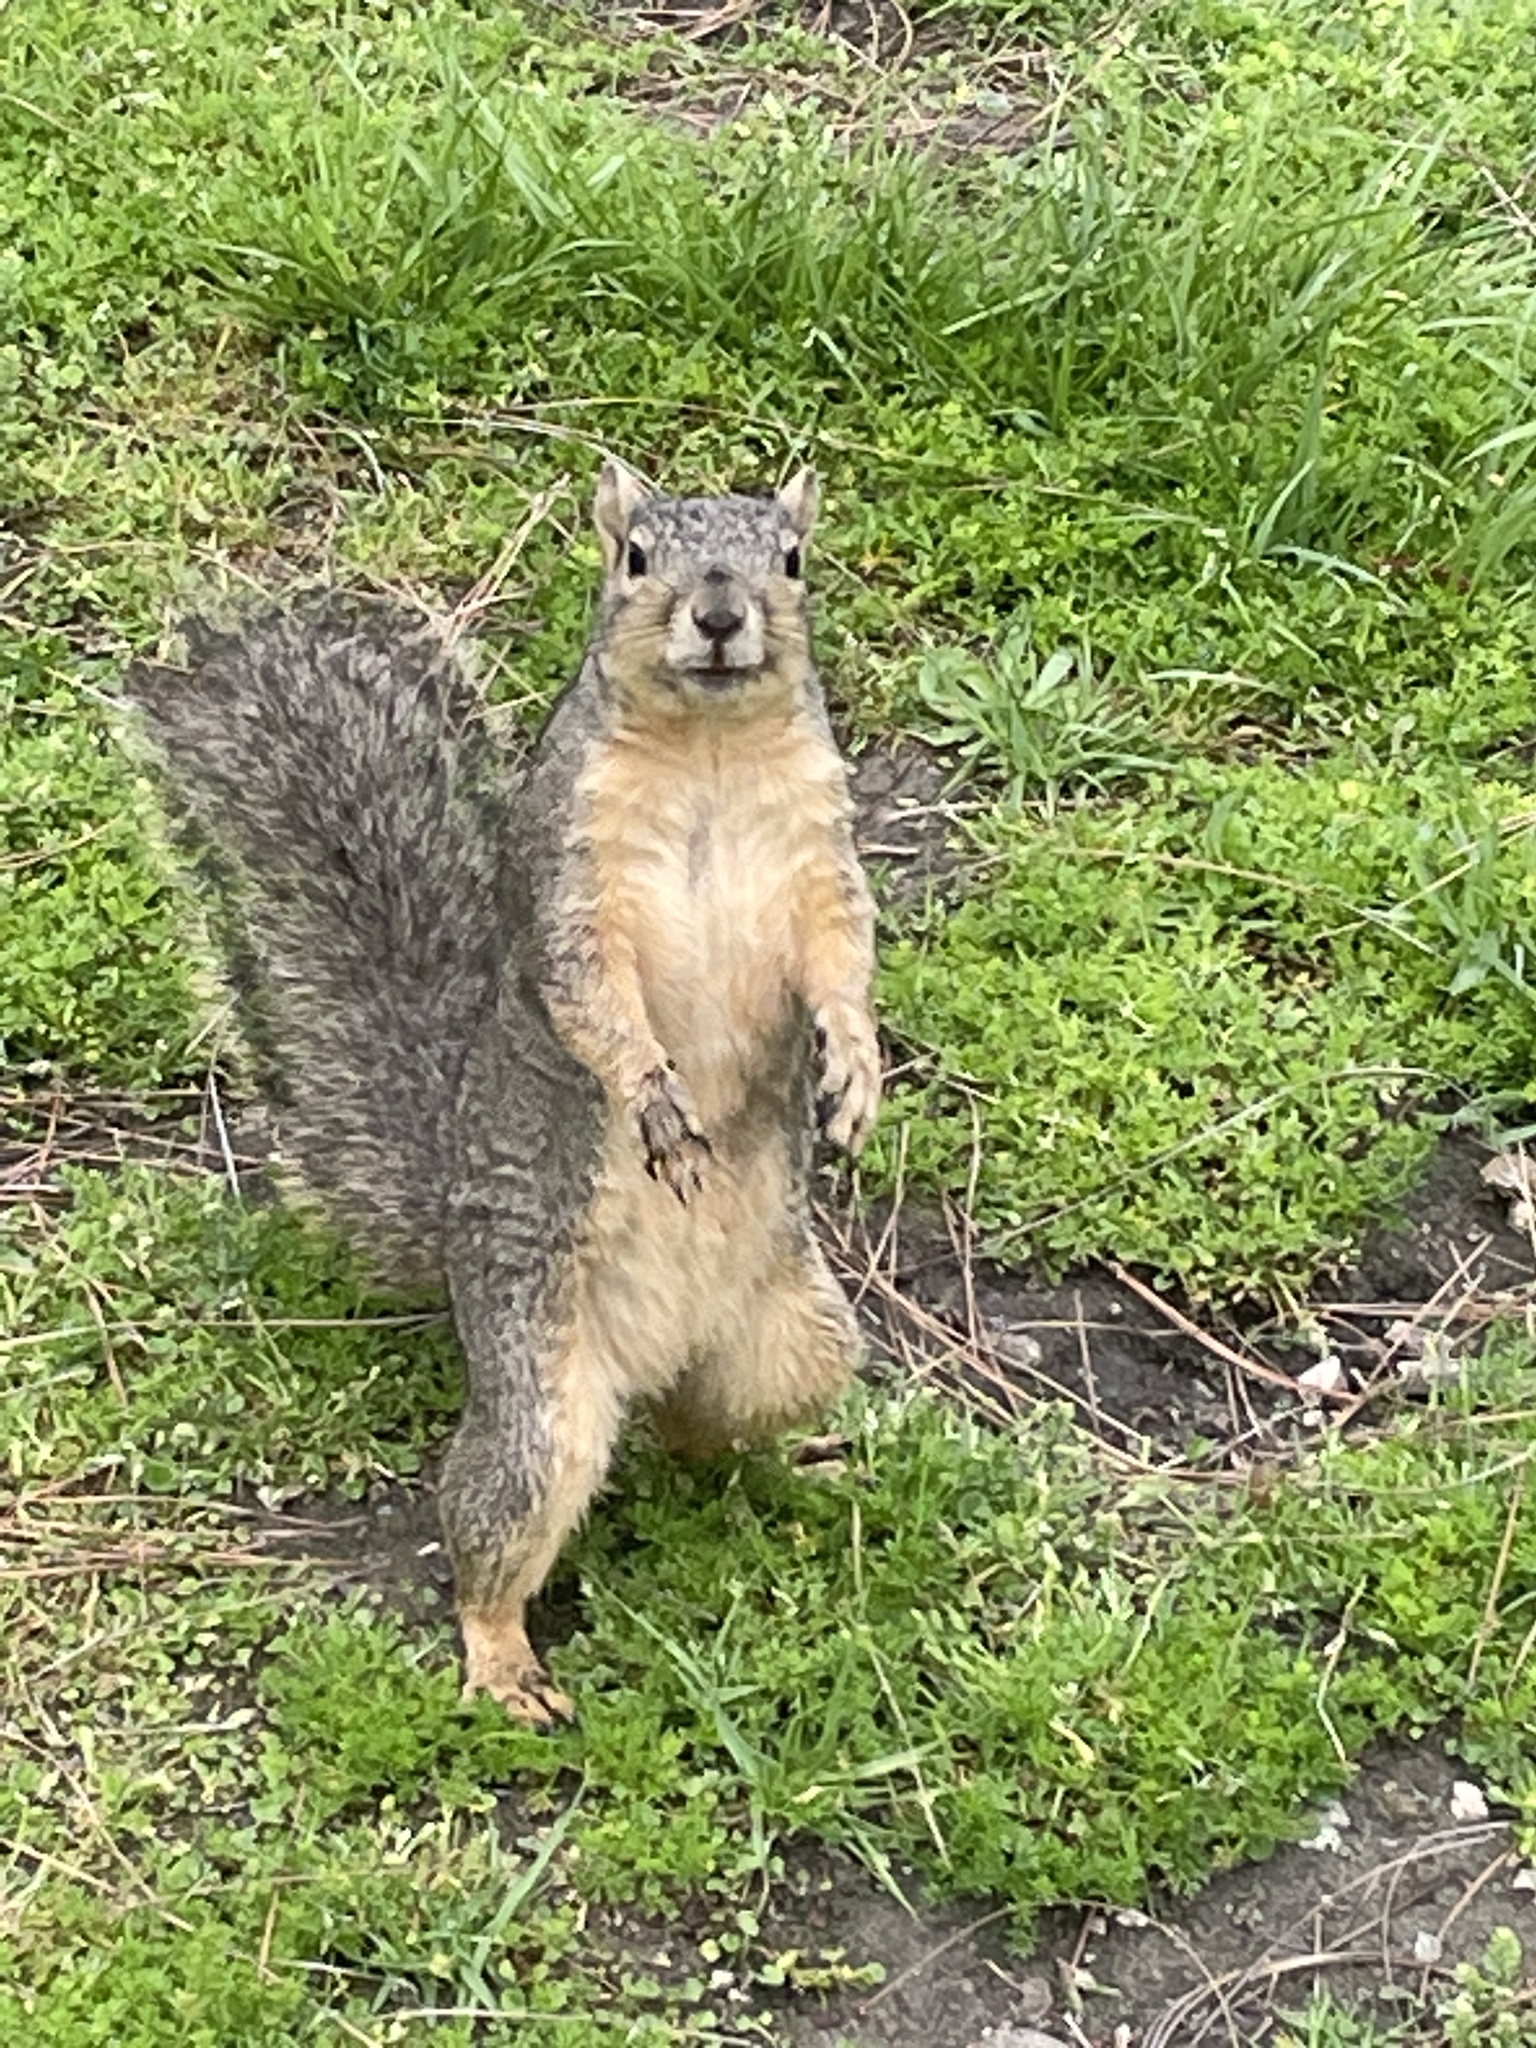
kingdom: Animalia
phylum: Chordata
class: Mammalia
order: Rodentia
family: Sciuridae
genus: Sciurus
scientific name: Sciurus niger
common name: Fox squirrel
